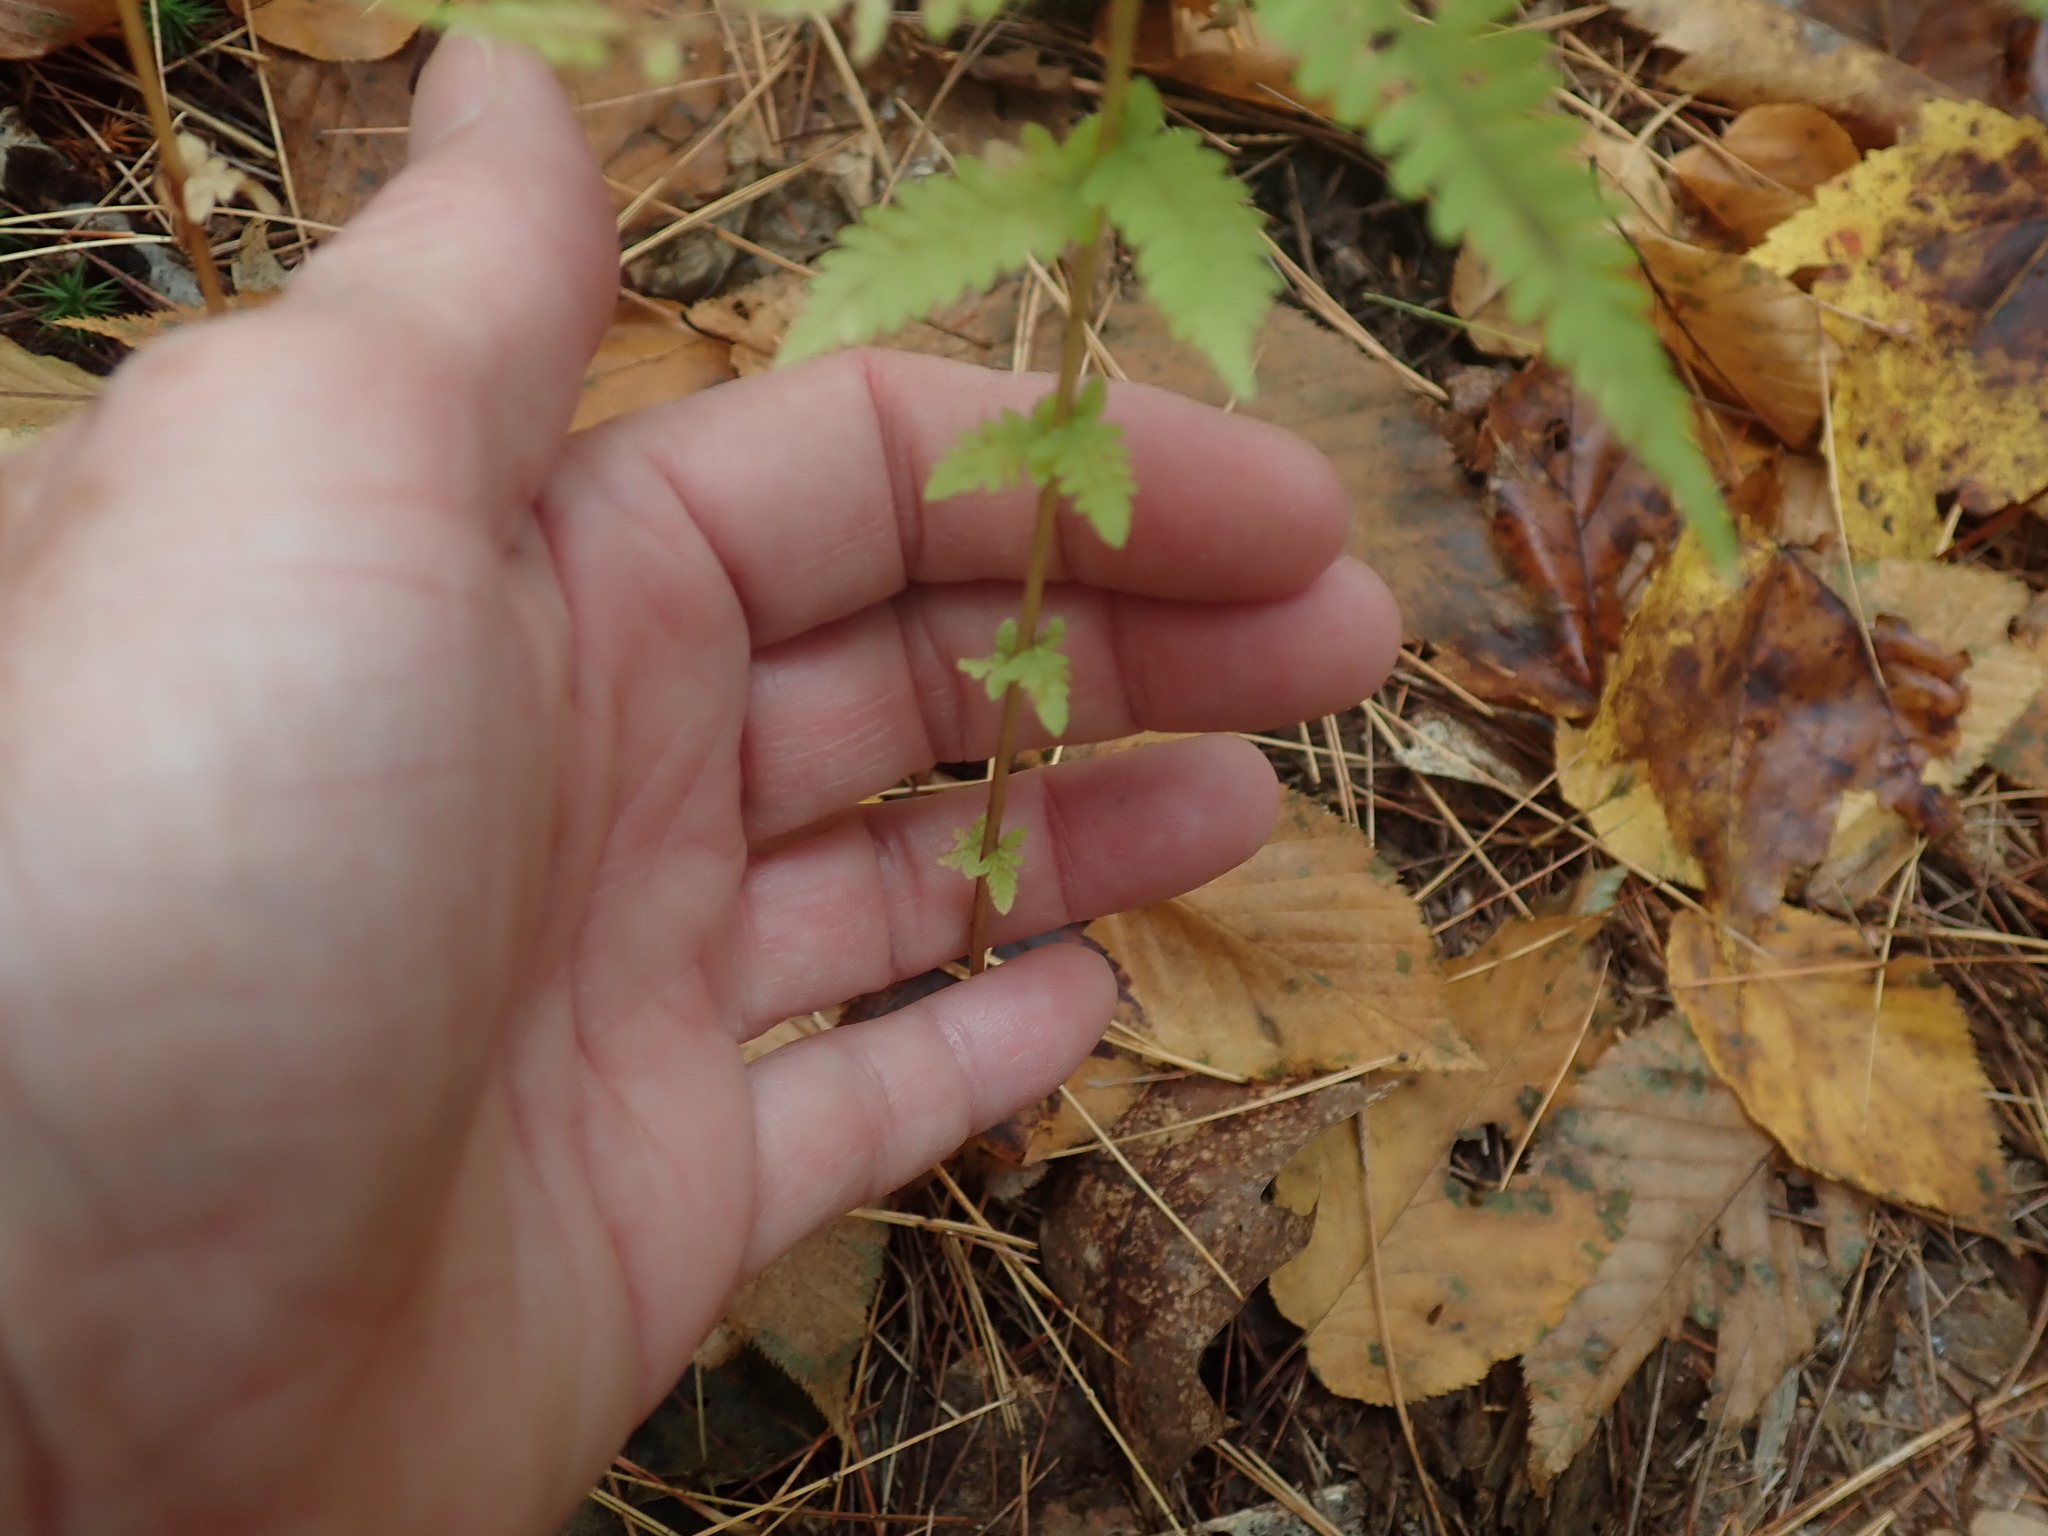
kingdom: Plantae
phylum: Tracheophyta
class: Polypodiopsida
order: Polypodiales
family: Thelypteridaceae
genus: Amauropelta
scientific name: Amauropelta noveboracensis
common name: New york fern
